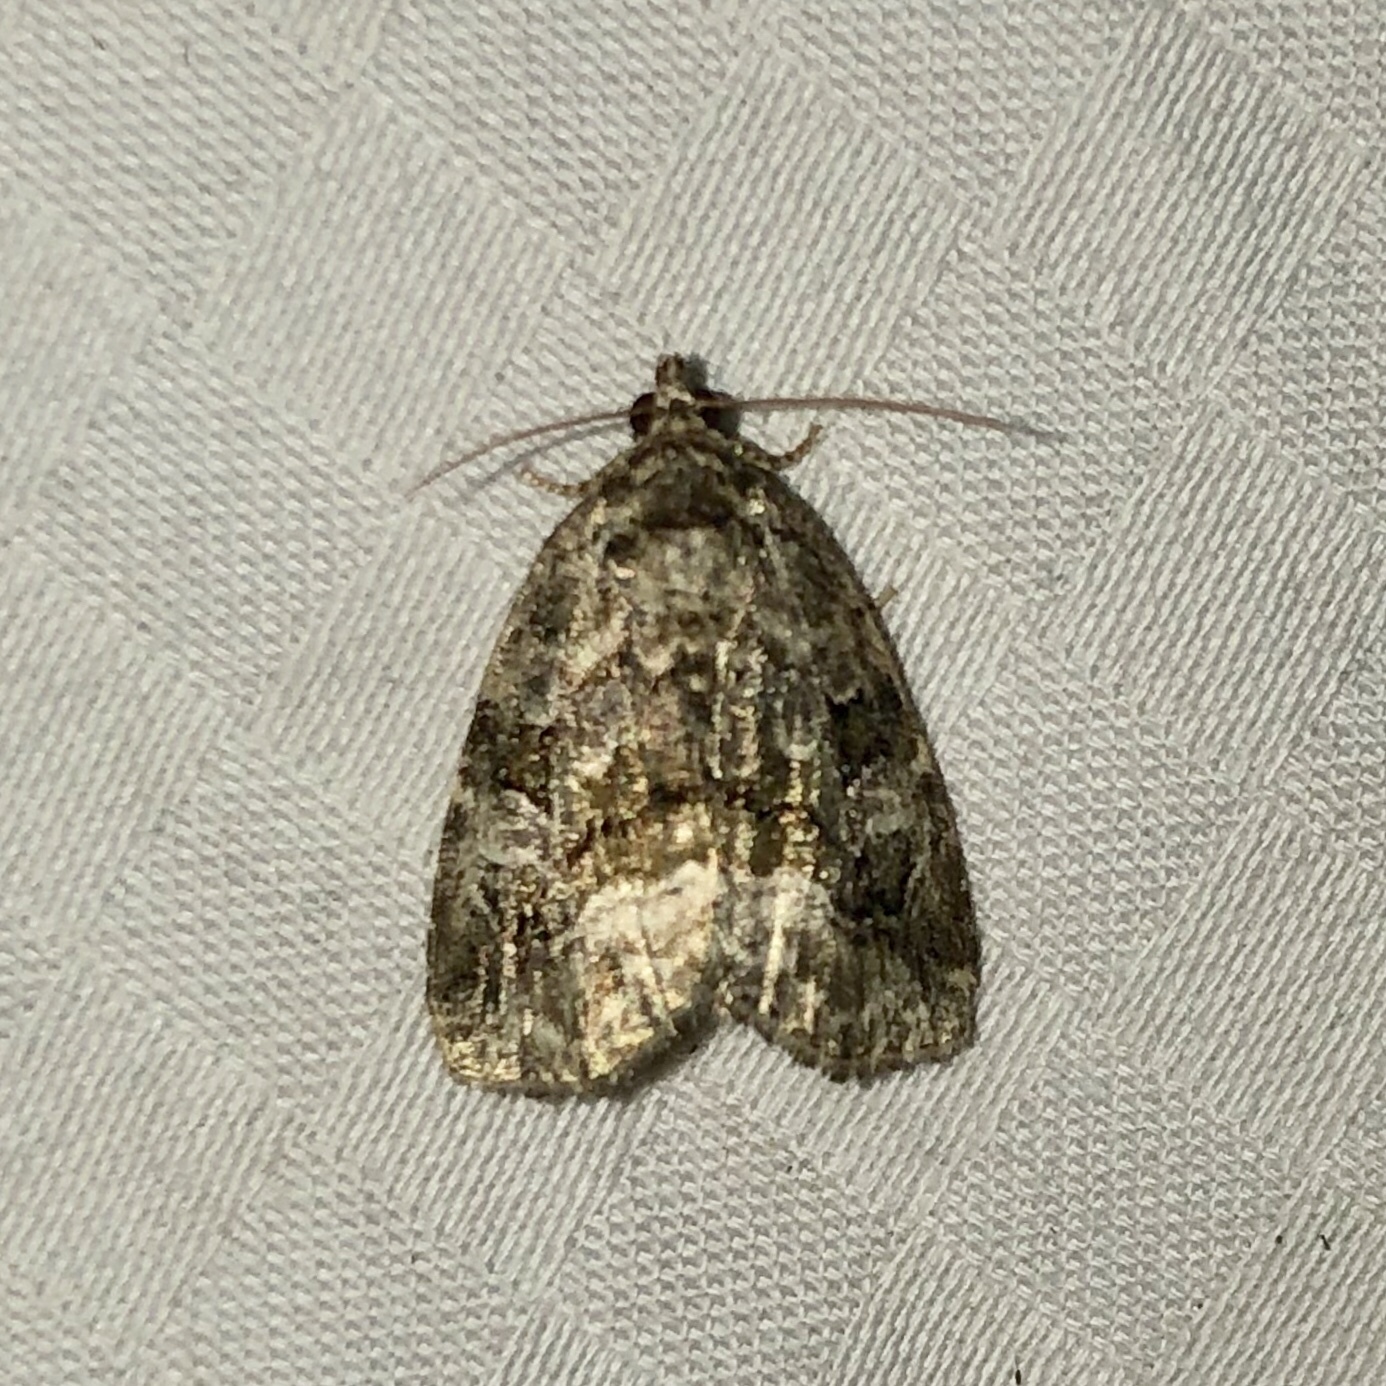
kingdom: Animalia
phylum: Arthropoda
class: Insecta
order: Lepidoptera
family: Noctuidae
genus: Protodeltote
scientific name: Protodeltote muscosula
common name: Large mossy glyph
